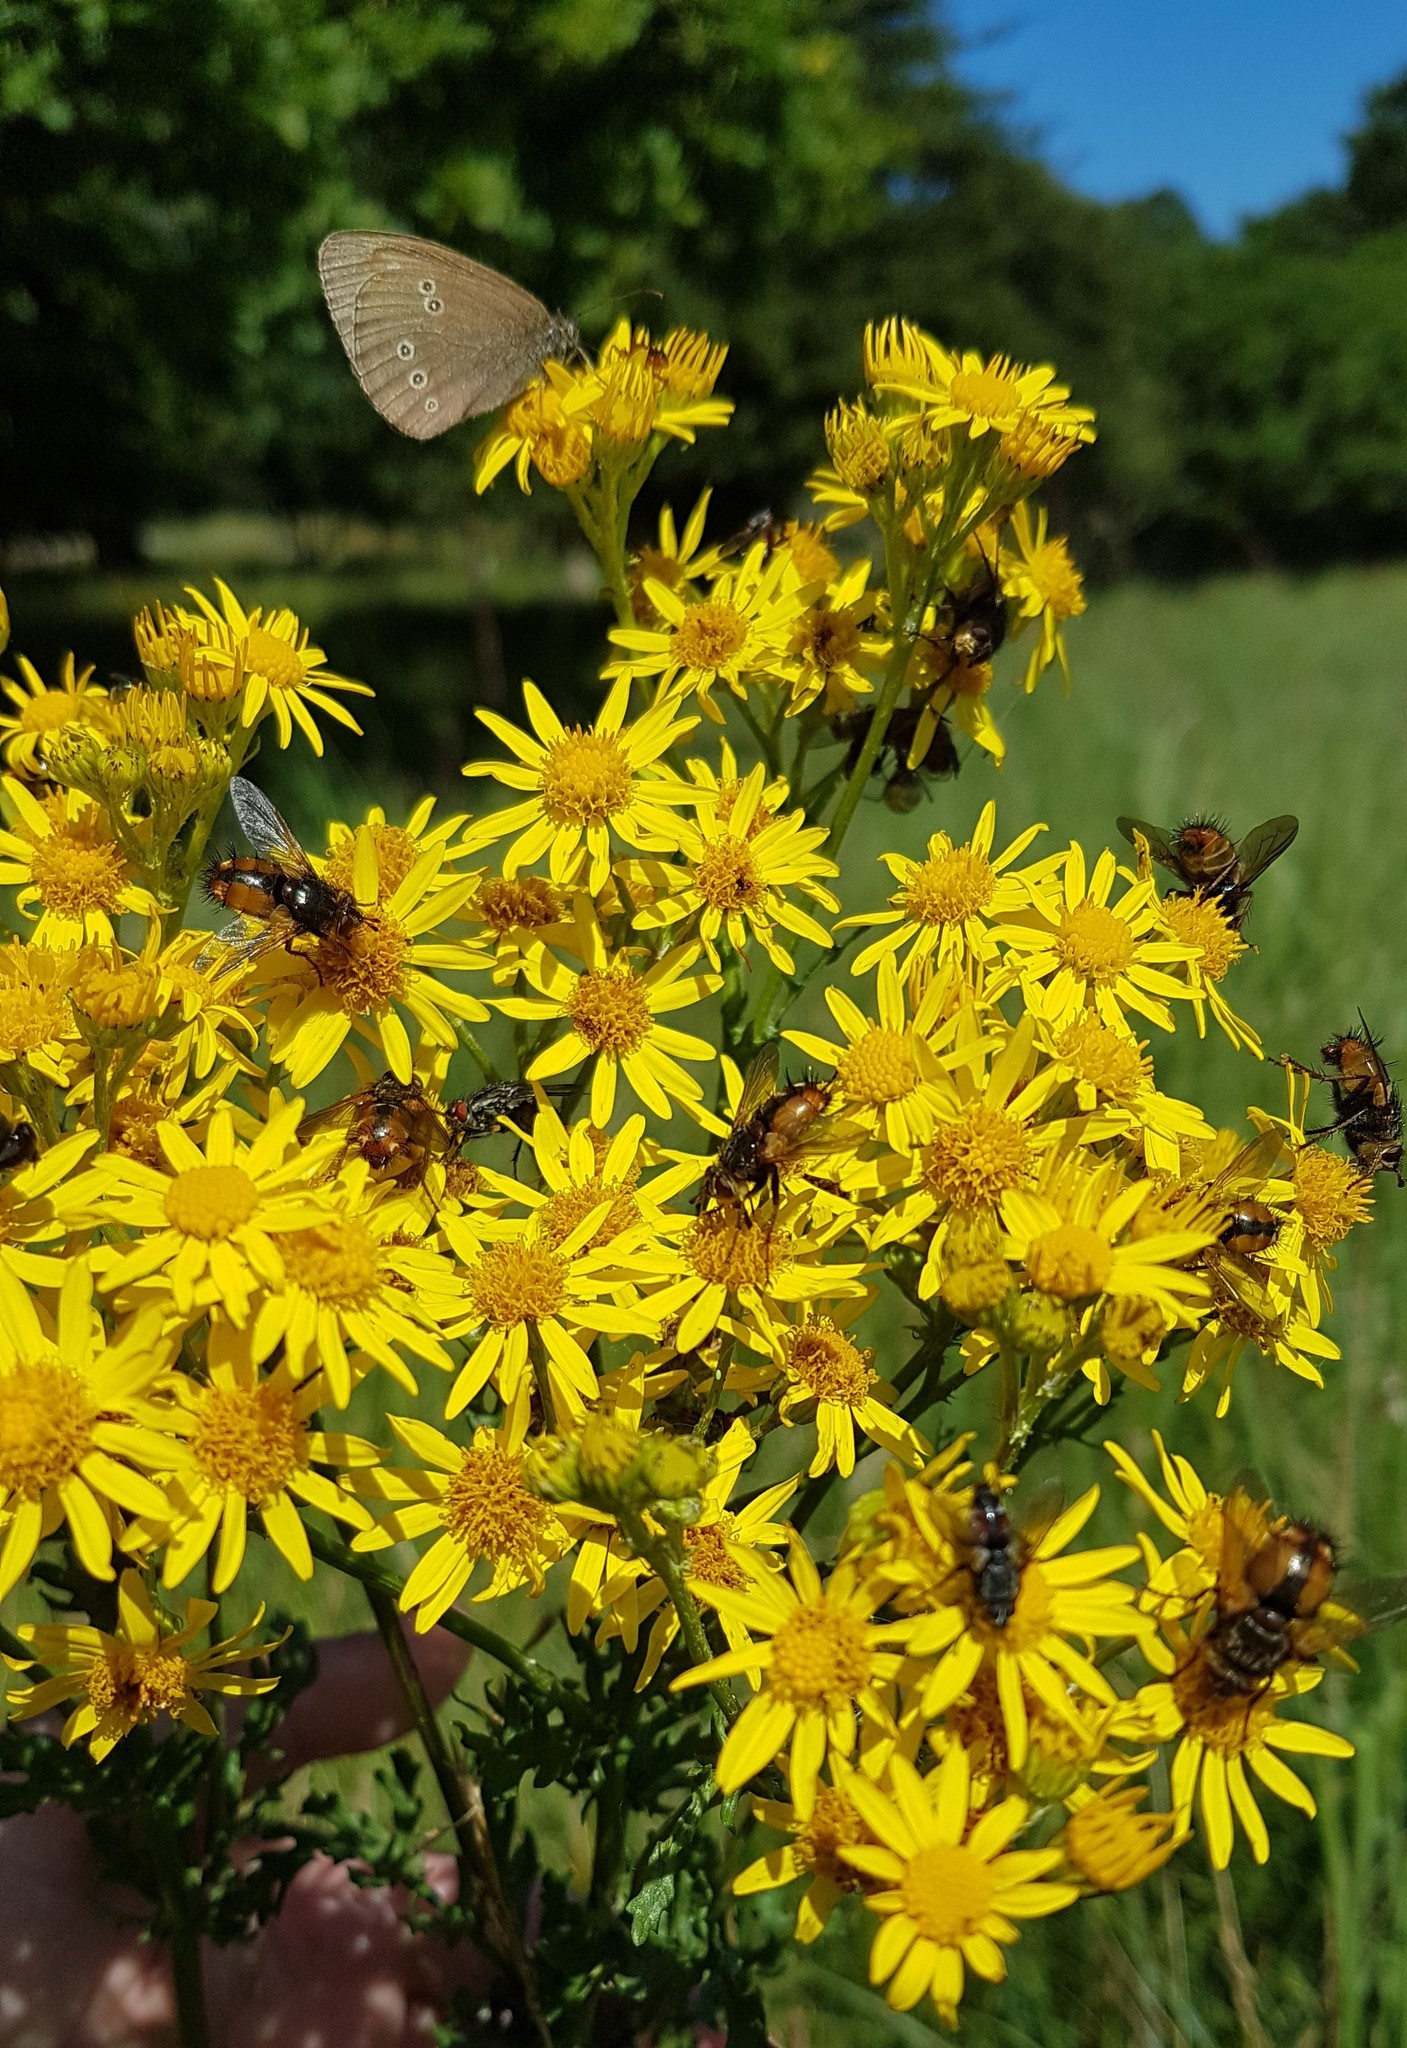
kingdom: Animalia
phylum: Arthropoda
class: Insecta
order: Diptera
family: Tachinidae
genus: Tachina
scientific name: Tachina fera
